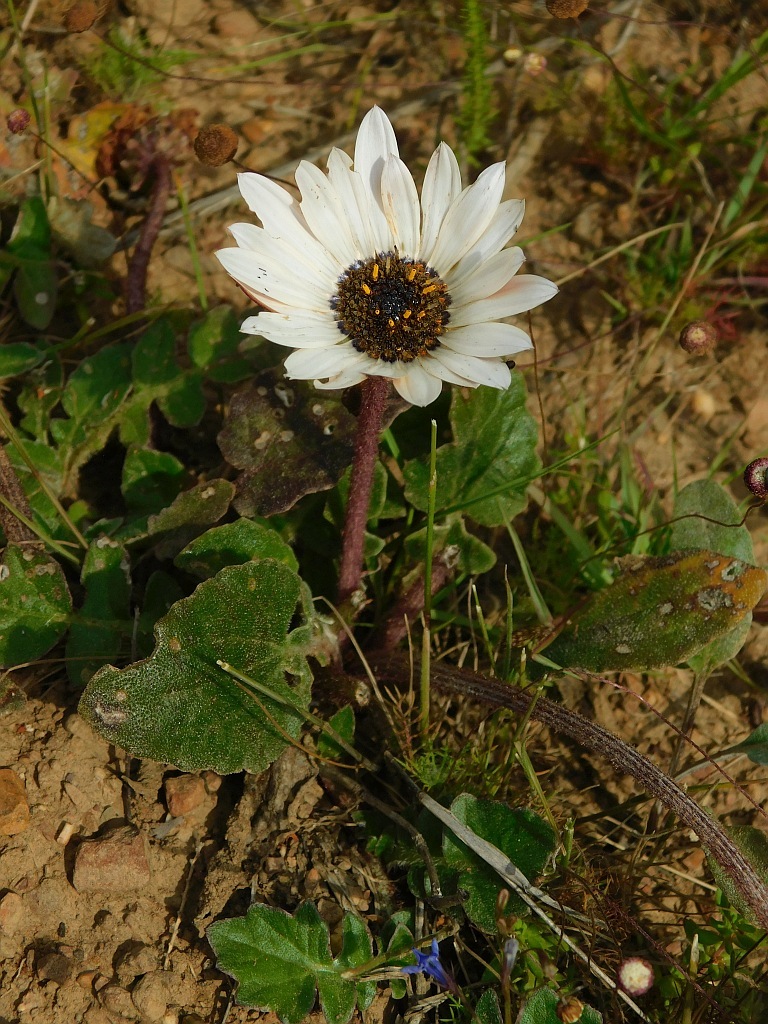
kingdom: Plantae
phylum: Tracheophyta
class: Magnoliopsida
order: Asterales
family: Asteraceae
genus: Arctotis
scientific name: Arctotis acaulis
